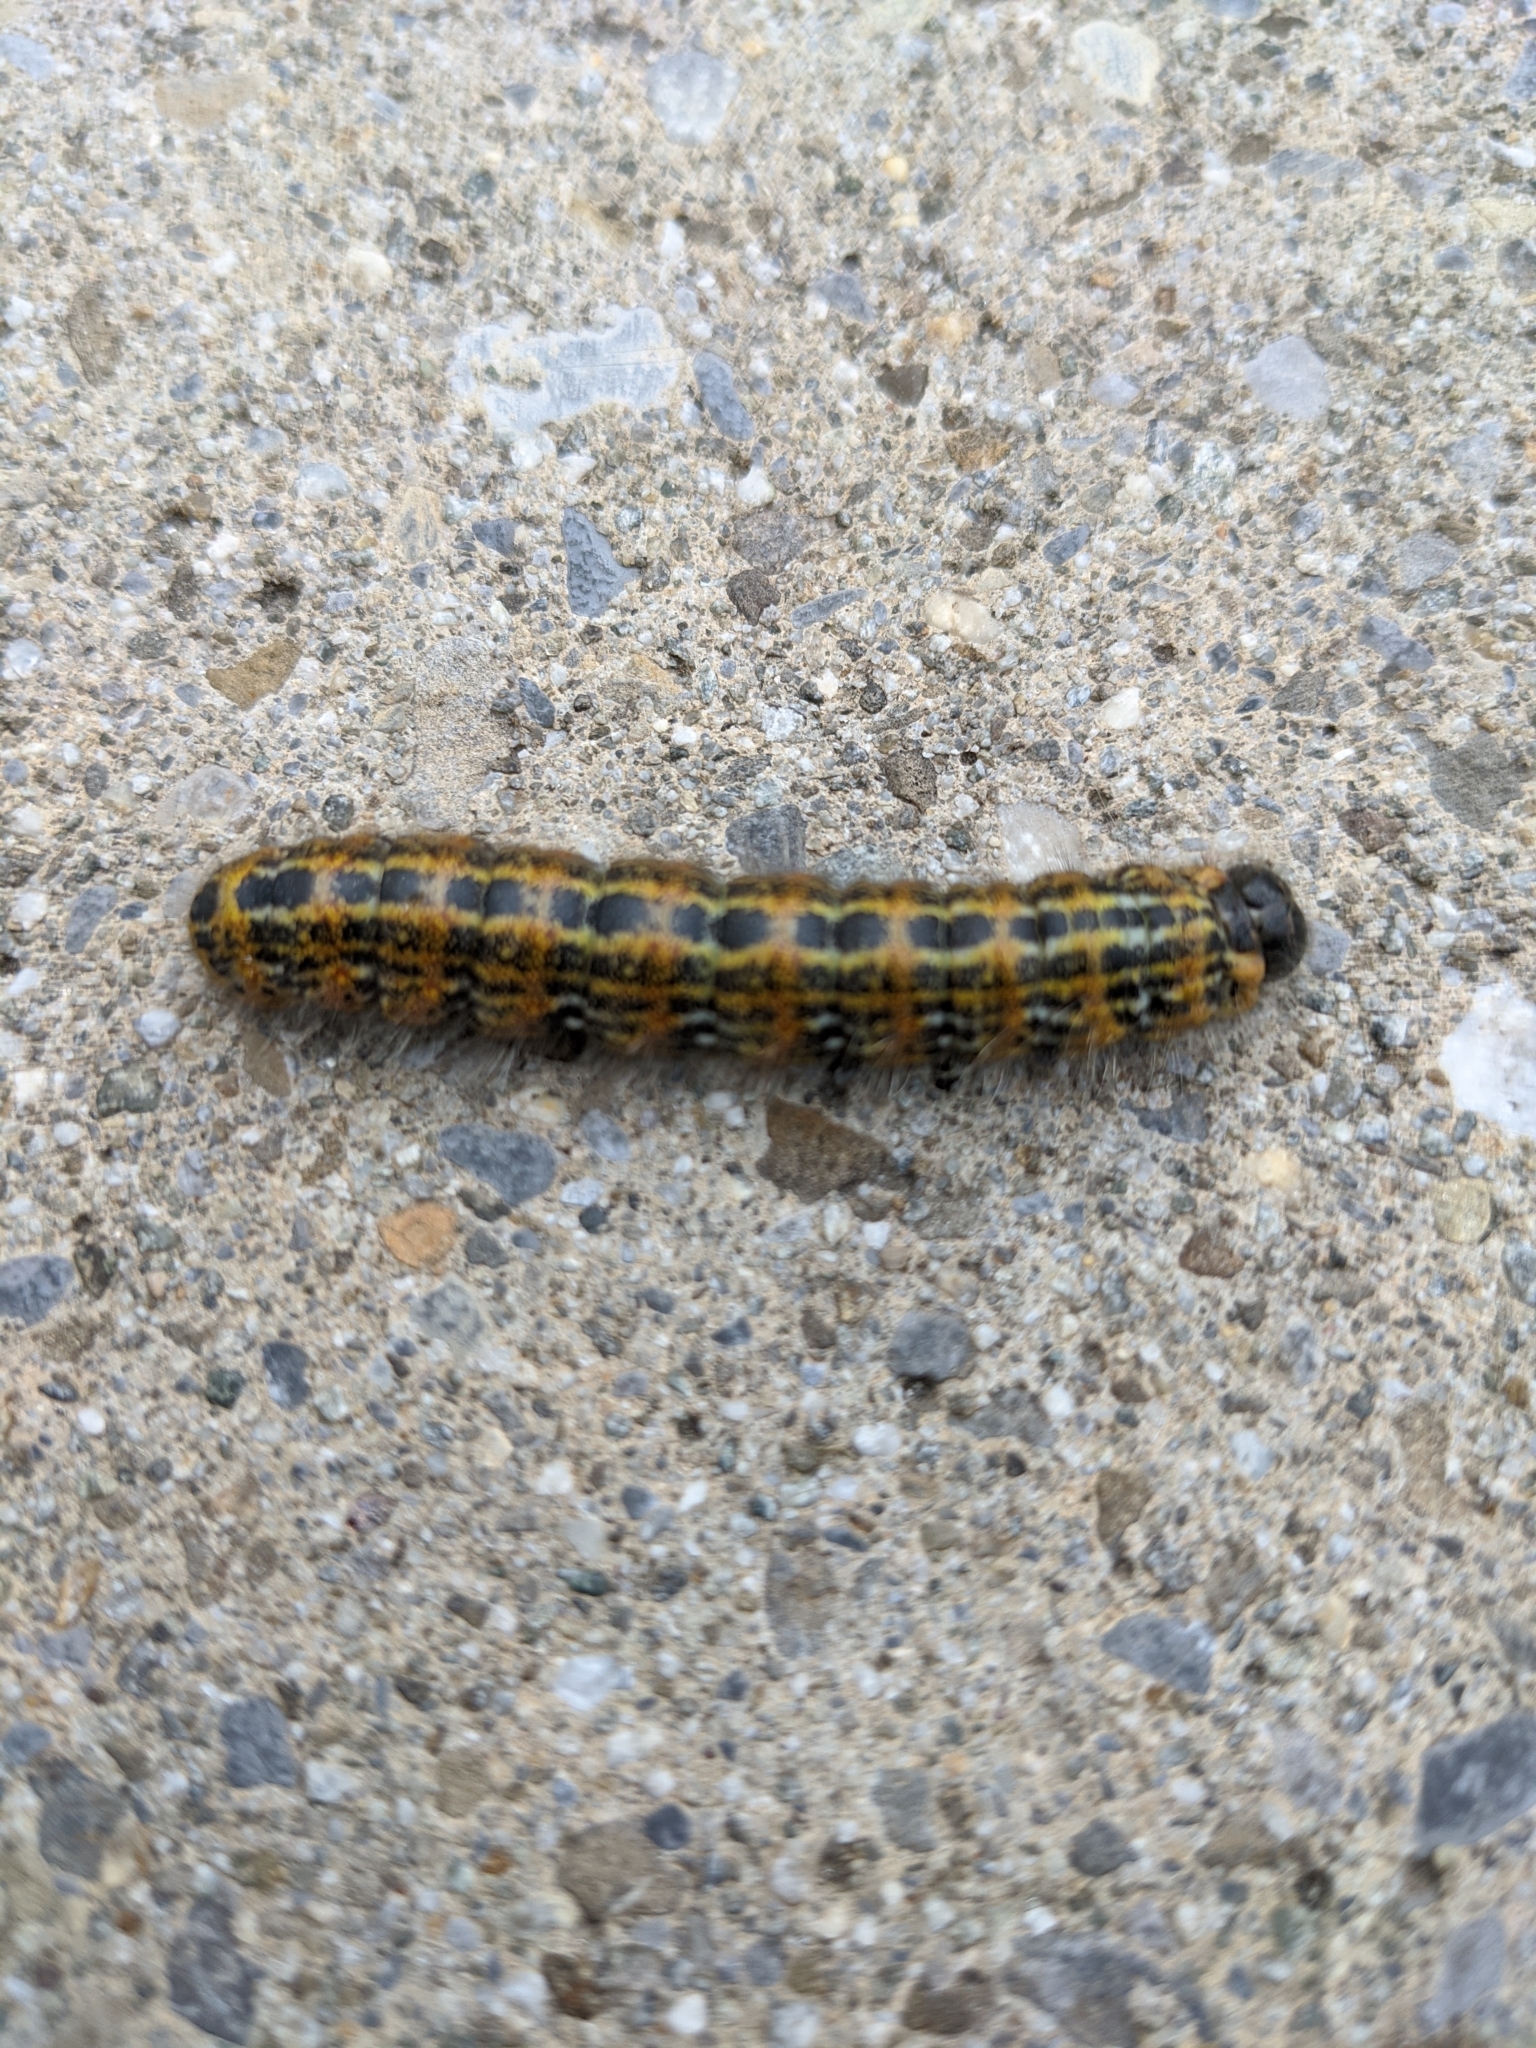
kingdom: Animalia
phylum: Arthropoda
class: Insecta
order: Lepidoptera
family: Notodontidae
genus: Phalera
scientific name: Phalera bucephala
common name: Buff-tip
